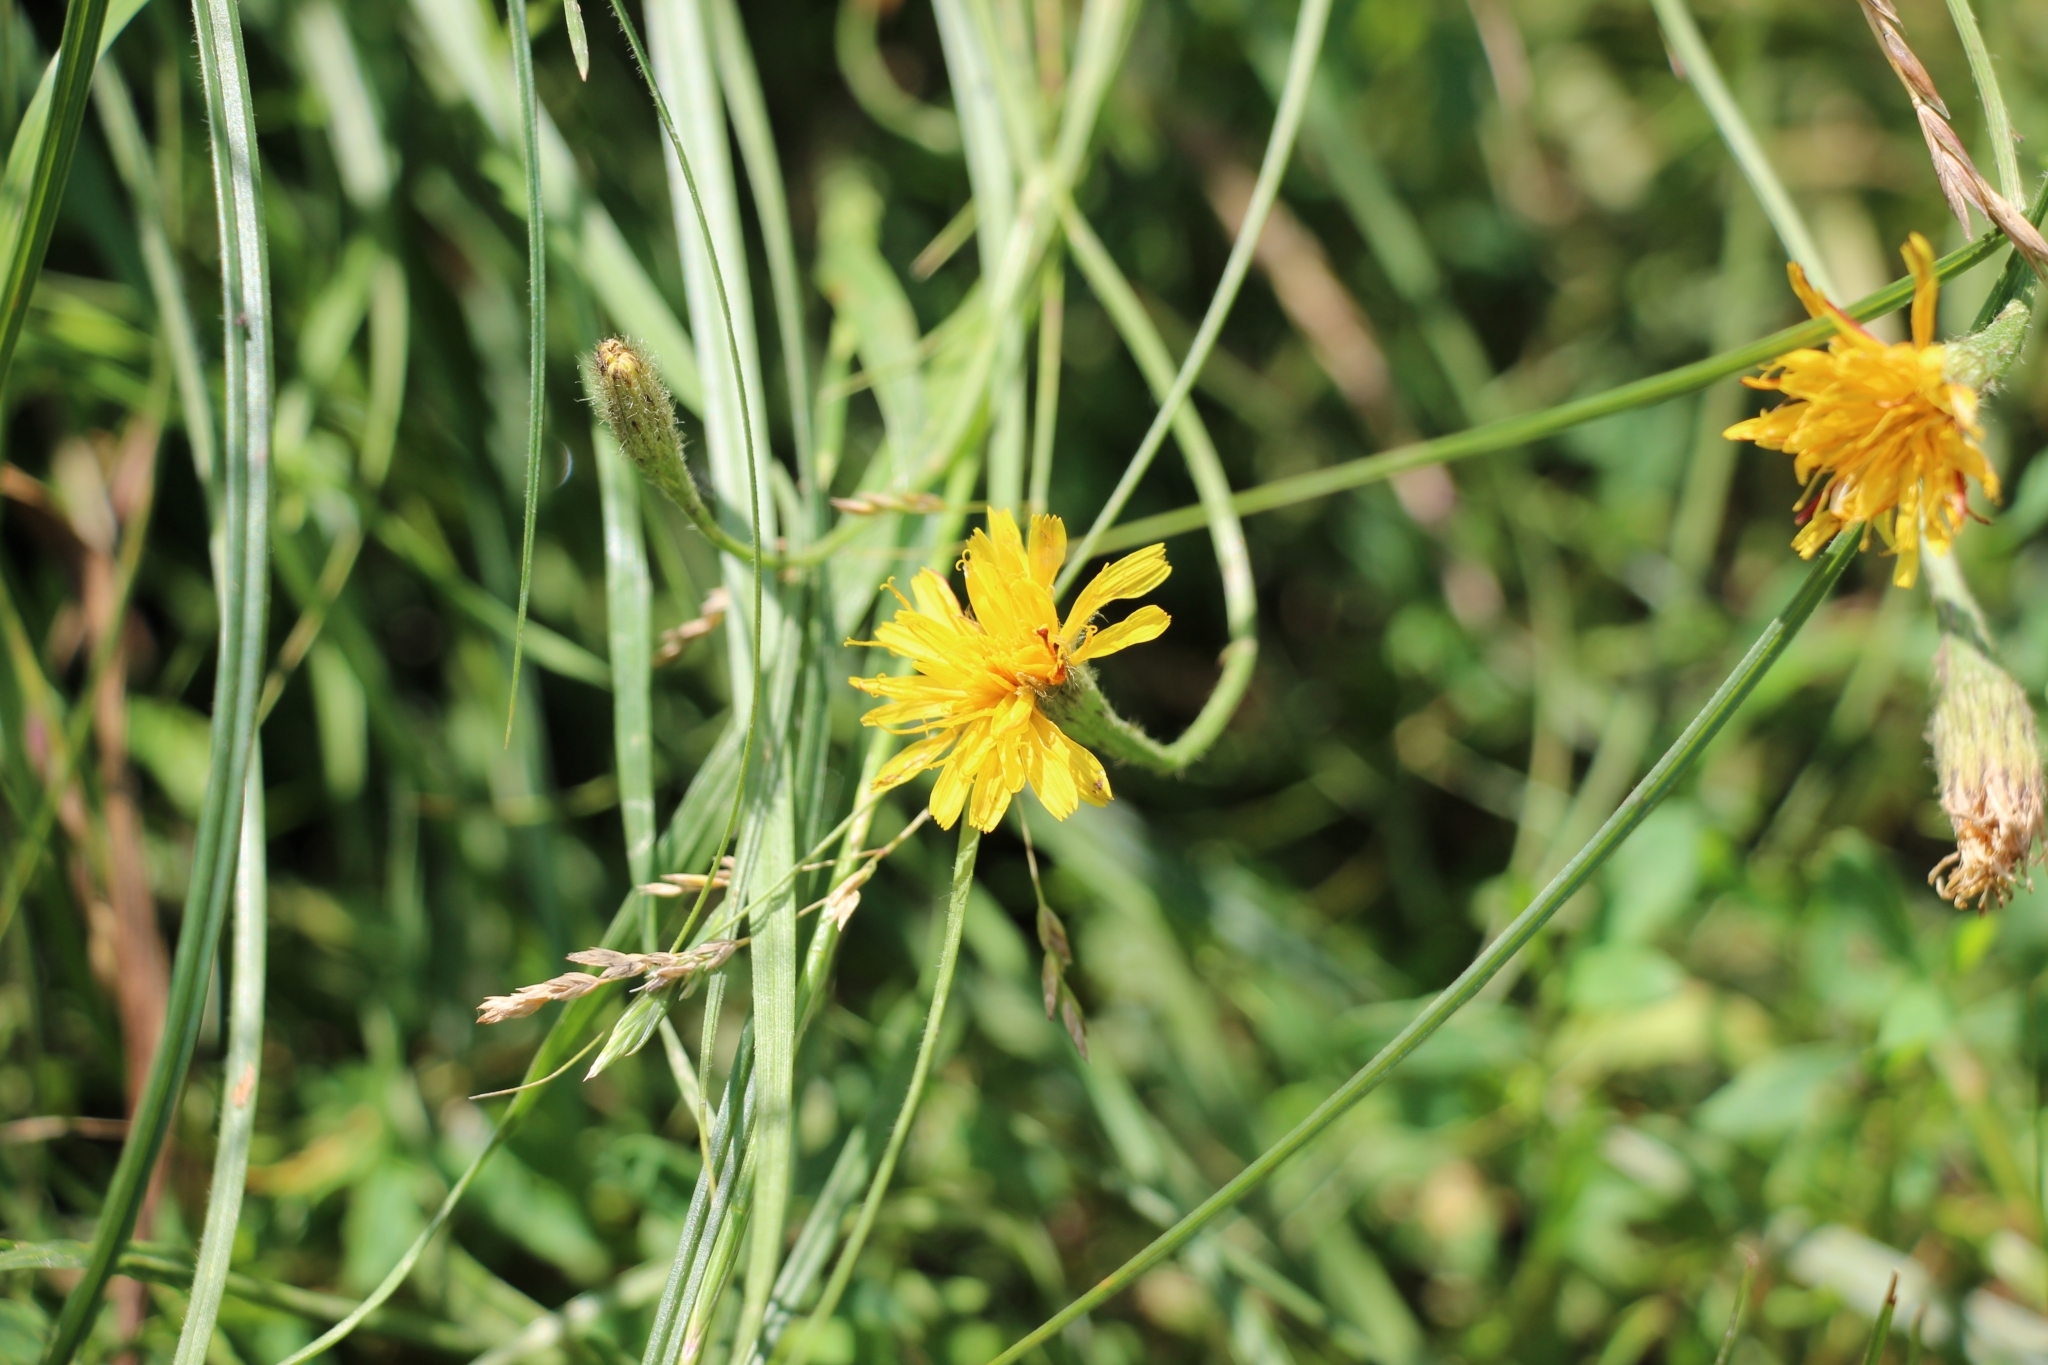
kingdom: Plantae
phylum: Tracheophyta
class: Magnoliopsida
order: Asterales
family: Asteraceae
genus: Scorzoneroides
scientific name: Scorzoneroides autumnalis
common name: Autumn hawkbit
